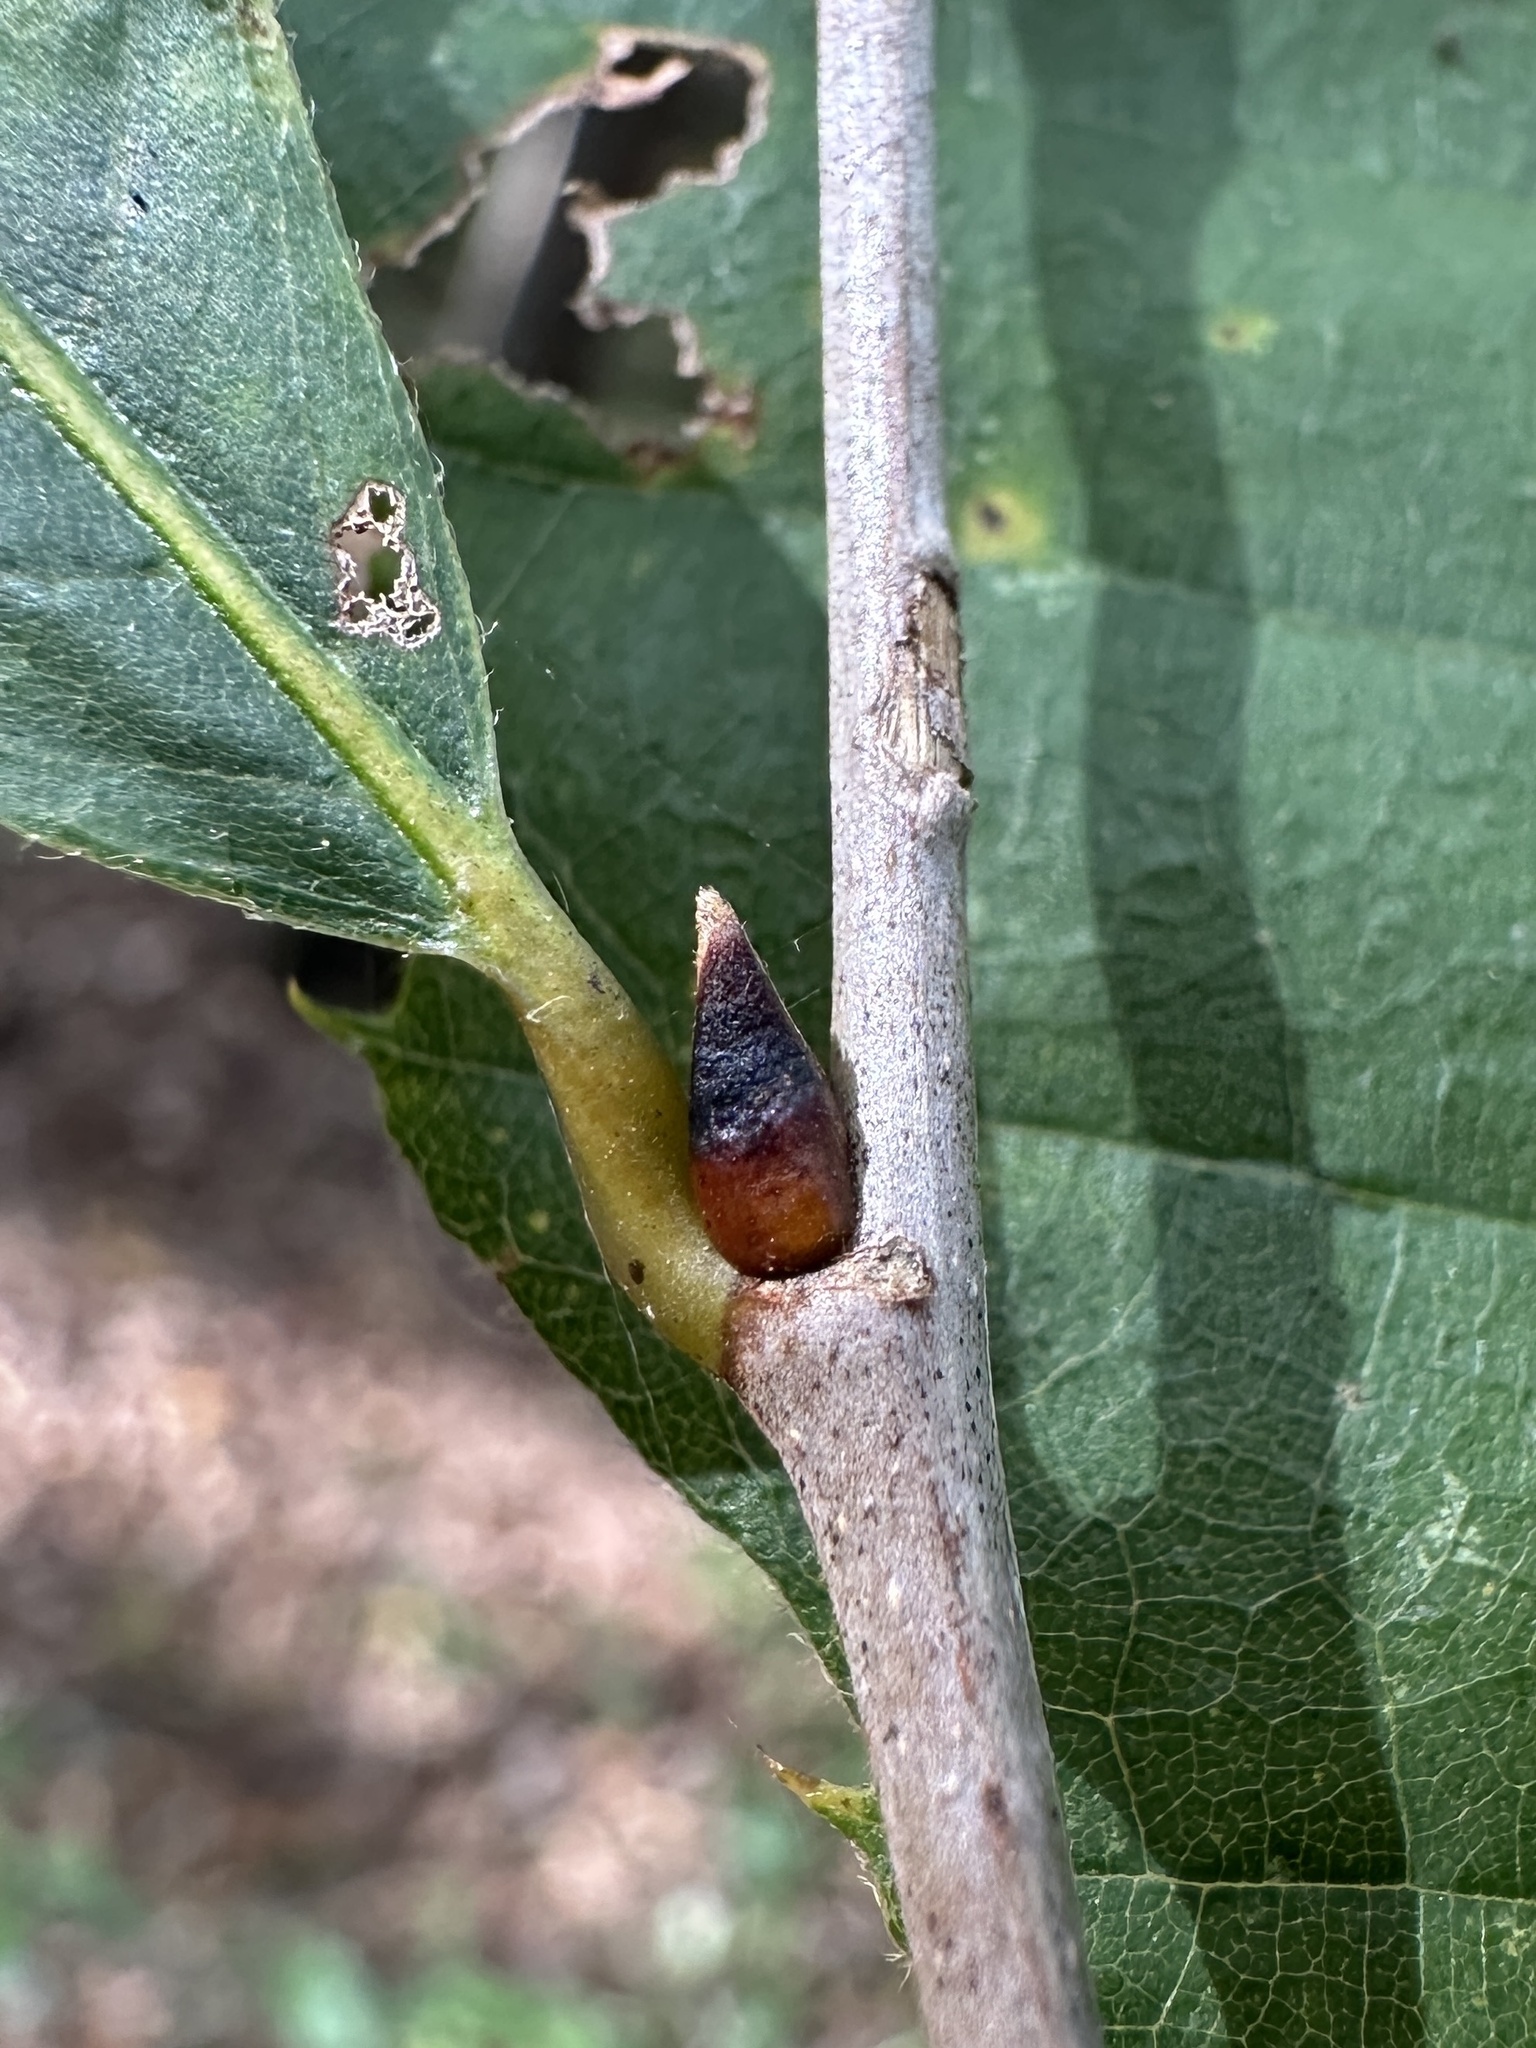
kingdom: Plantae
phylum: Tracheophyta
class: Magnoliopsida
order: Fagales
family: Fagaceae
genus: Castanea
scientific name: Castanea ozarkensis
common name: Ozark chinkapin
